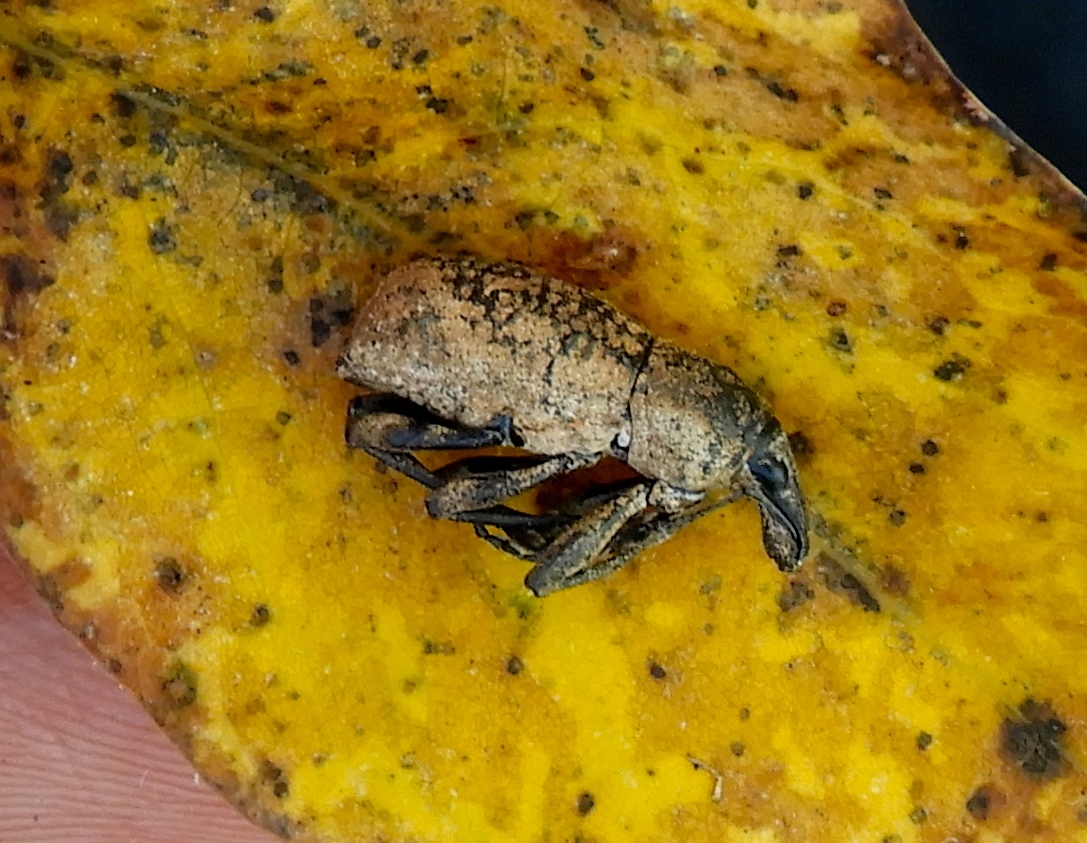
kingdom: Animalia
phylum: Arthropoda
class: Insecta
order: Coleoptera
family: Curculionidae
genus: Epicaerus
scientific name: Epicaerus
